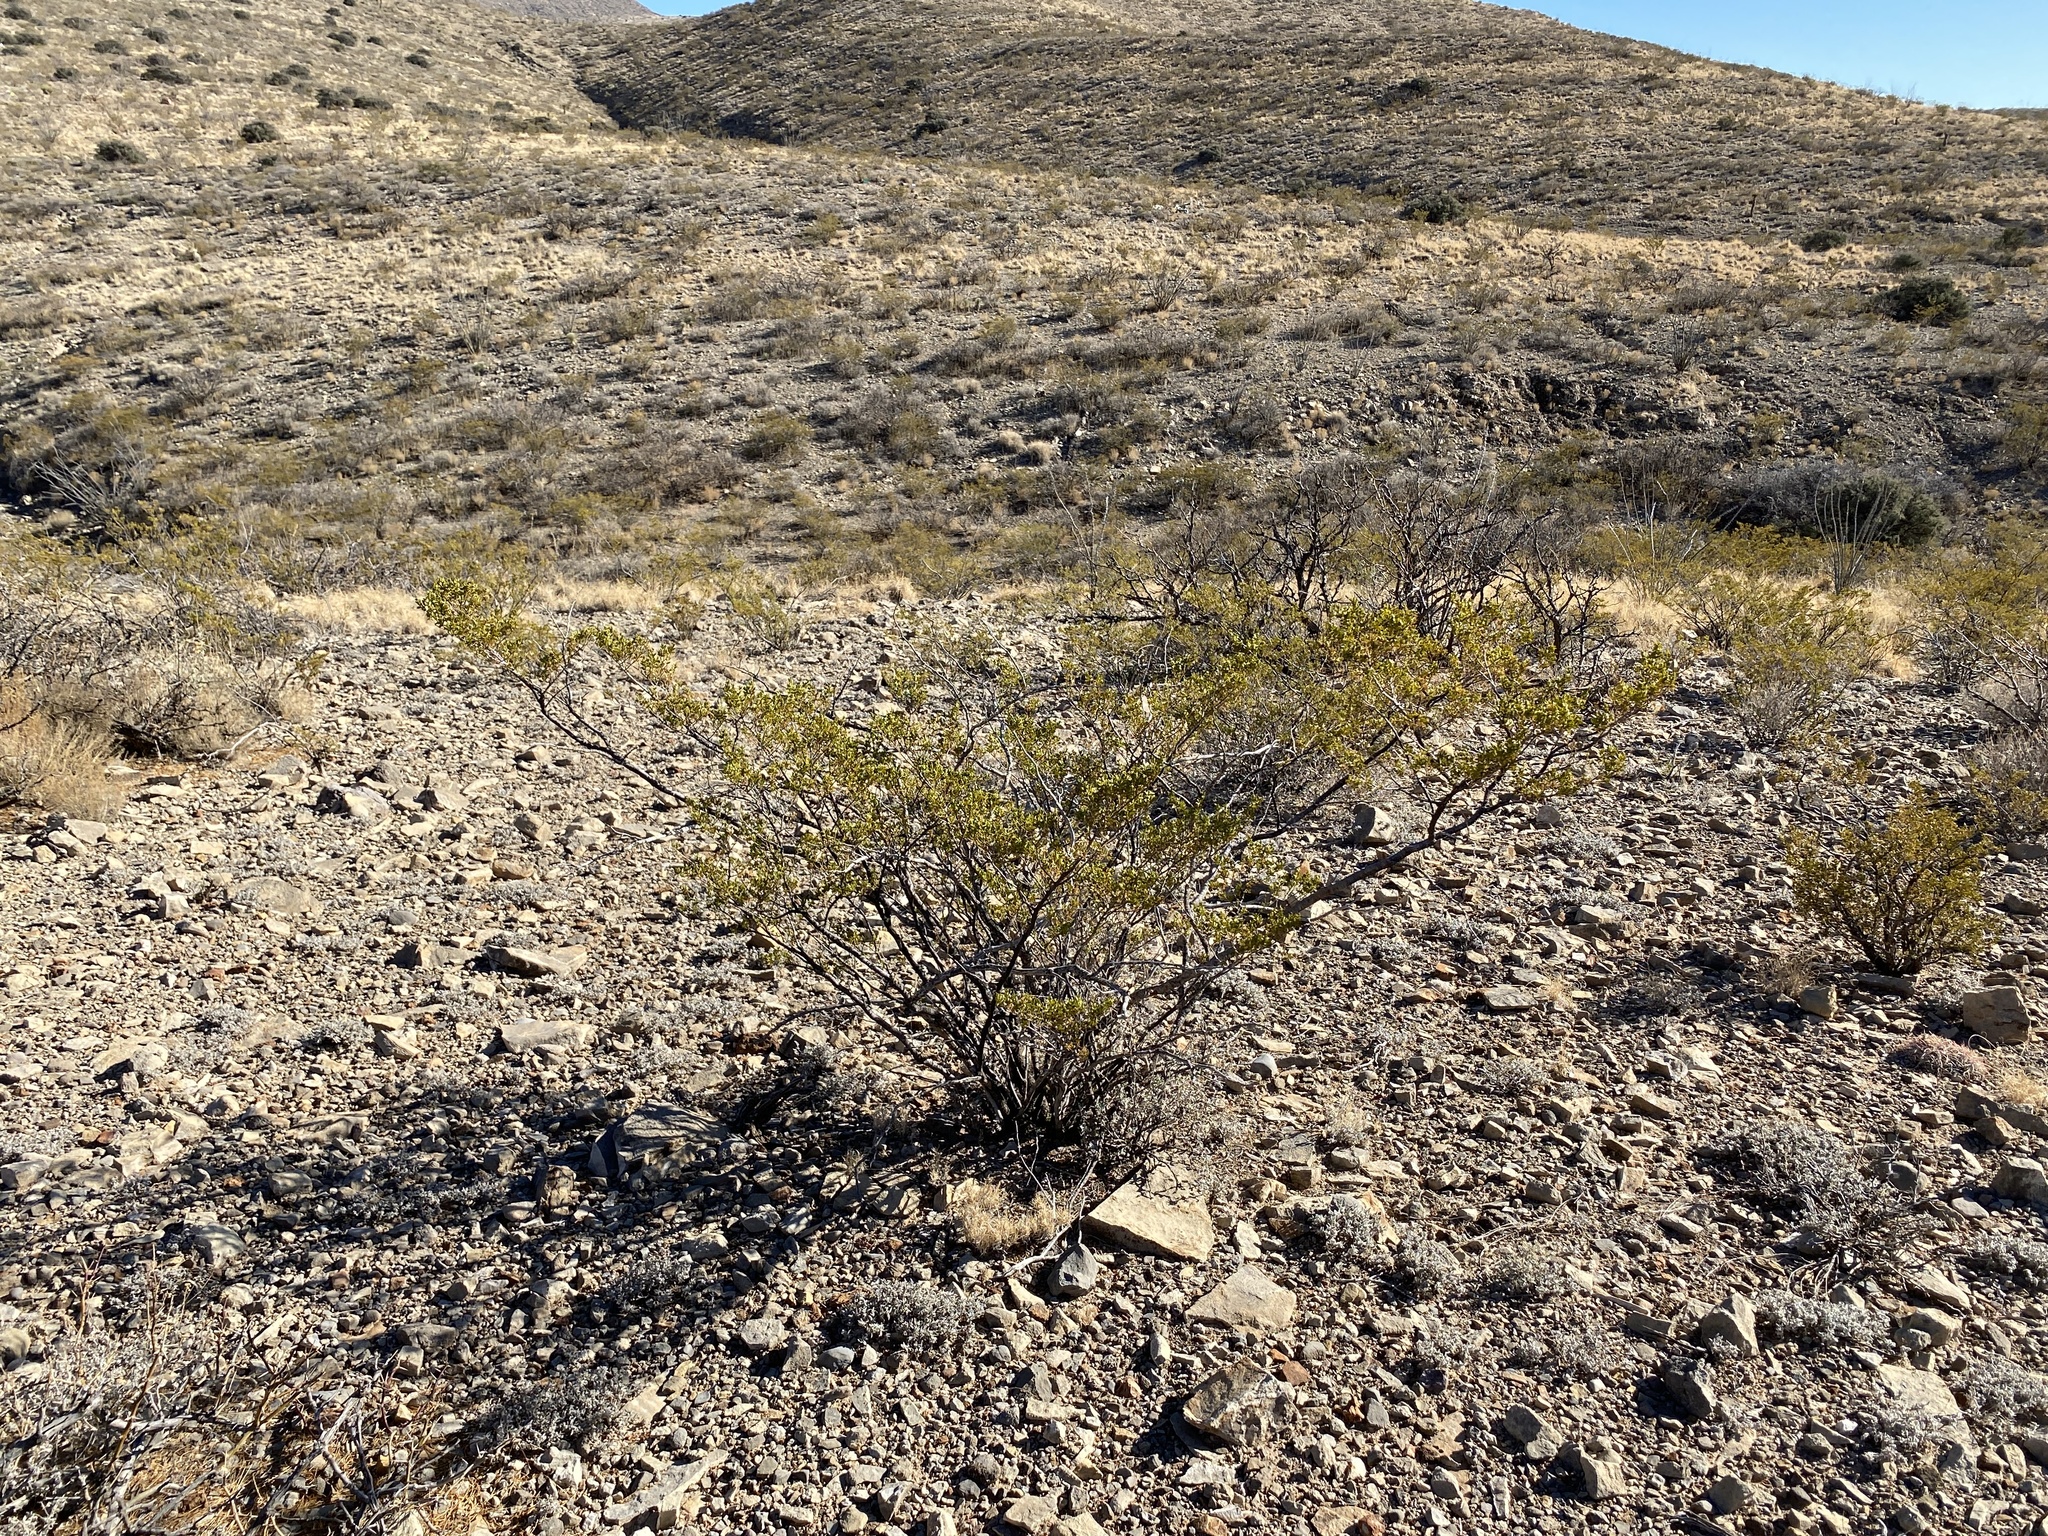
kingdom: Plantae
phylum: Tracheophyta
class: Magnoliopsida
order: Zygophyllales
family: Zygophyllaceae
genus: Larrea
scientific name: Larrea tridentata
